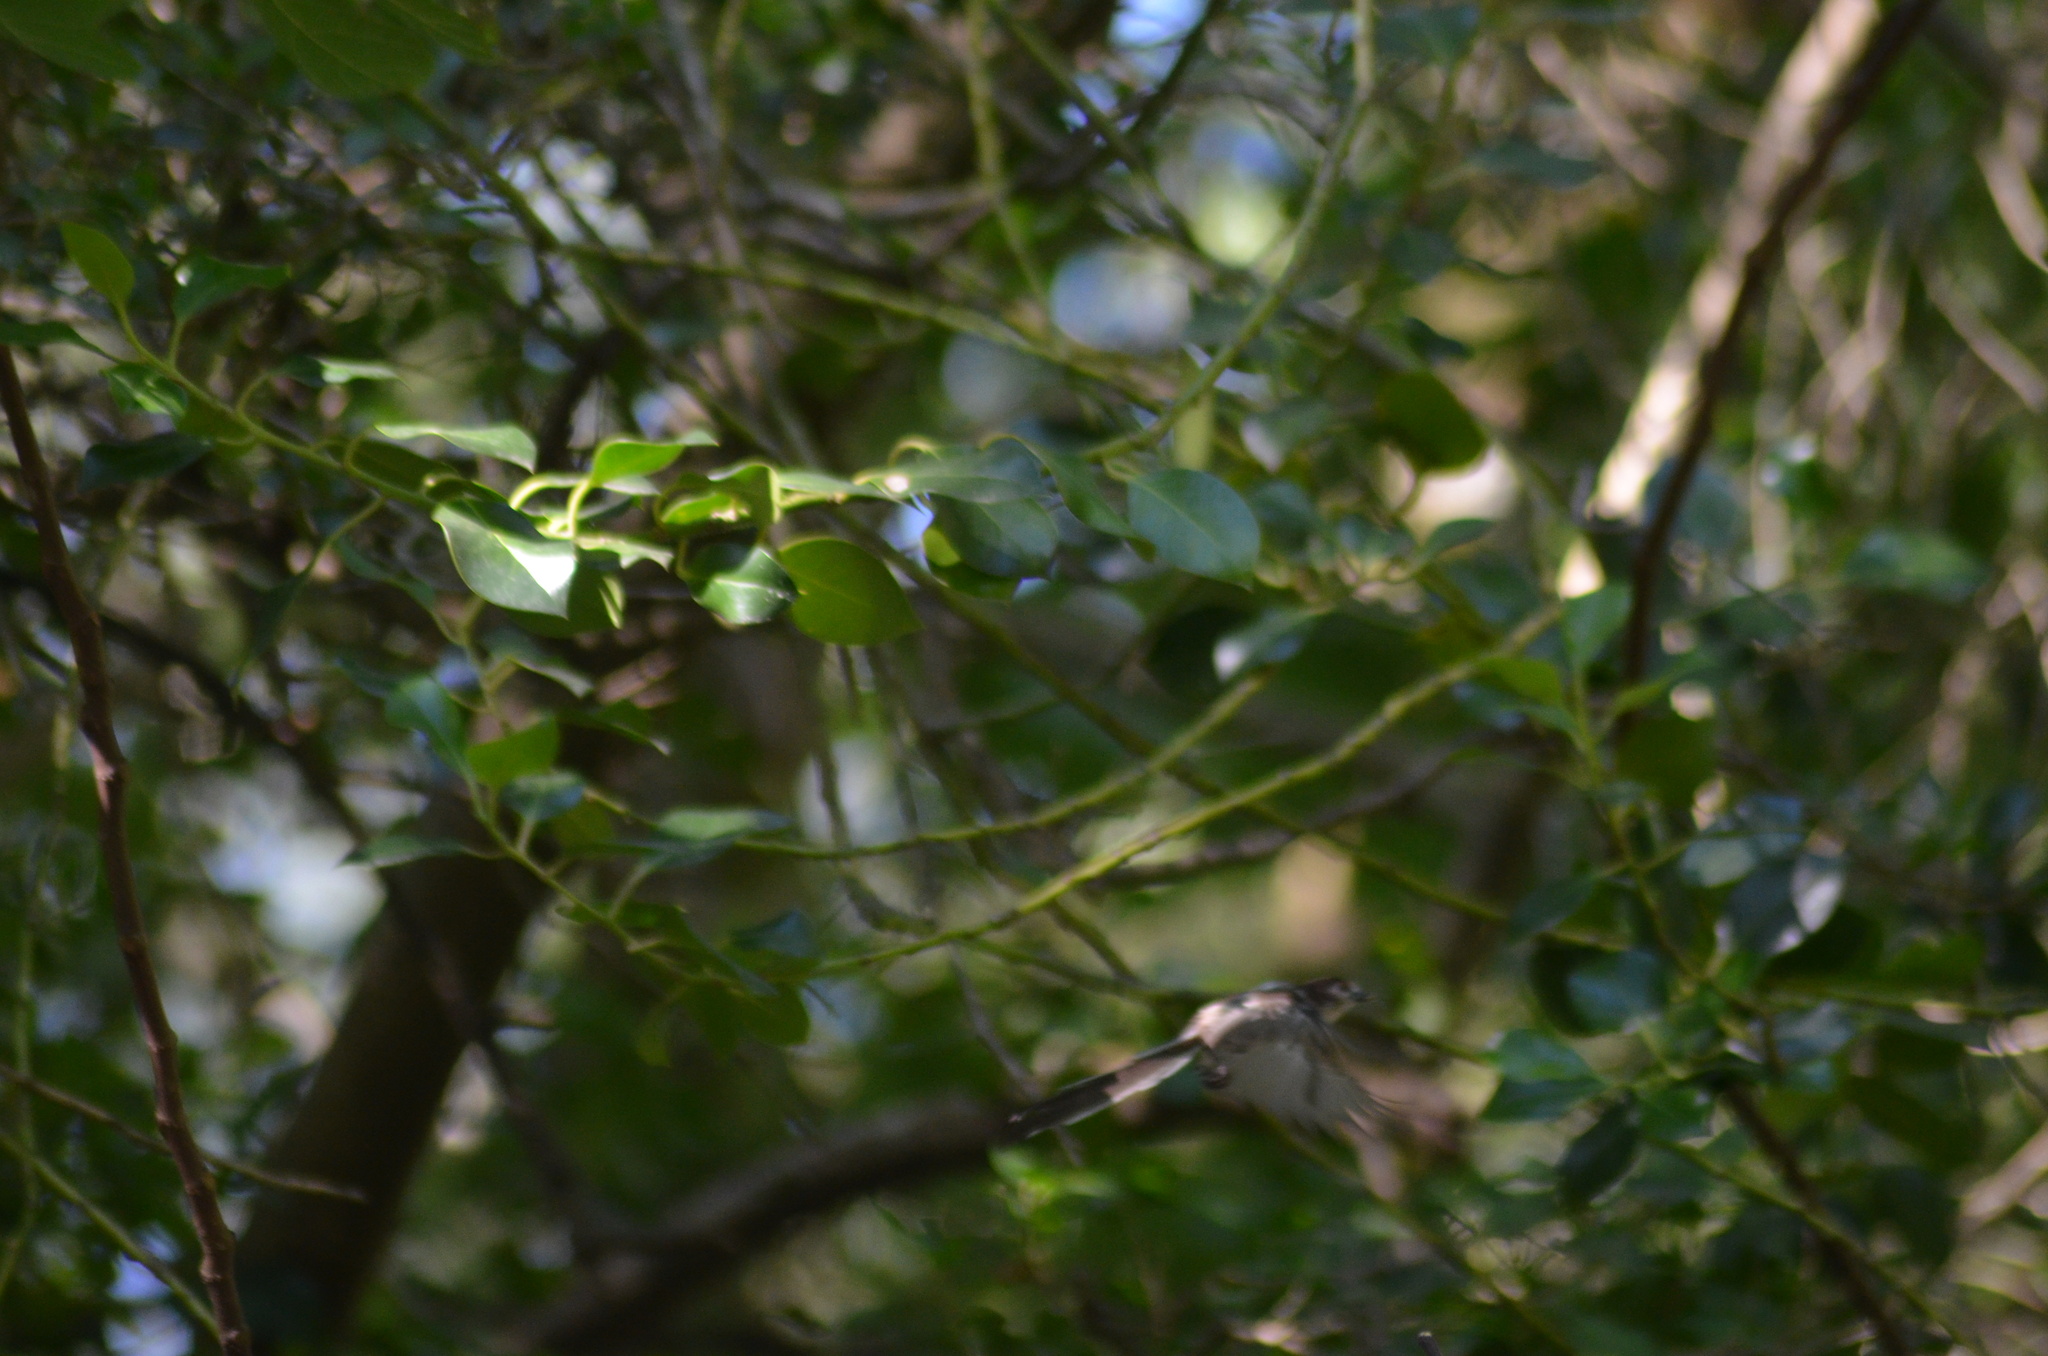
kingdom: Animalia
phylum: Chordata
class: Aves
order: Passeriformes
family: Aegithalidae
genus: Aegithalos
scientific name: Aegithalos caudatus
